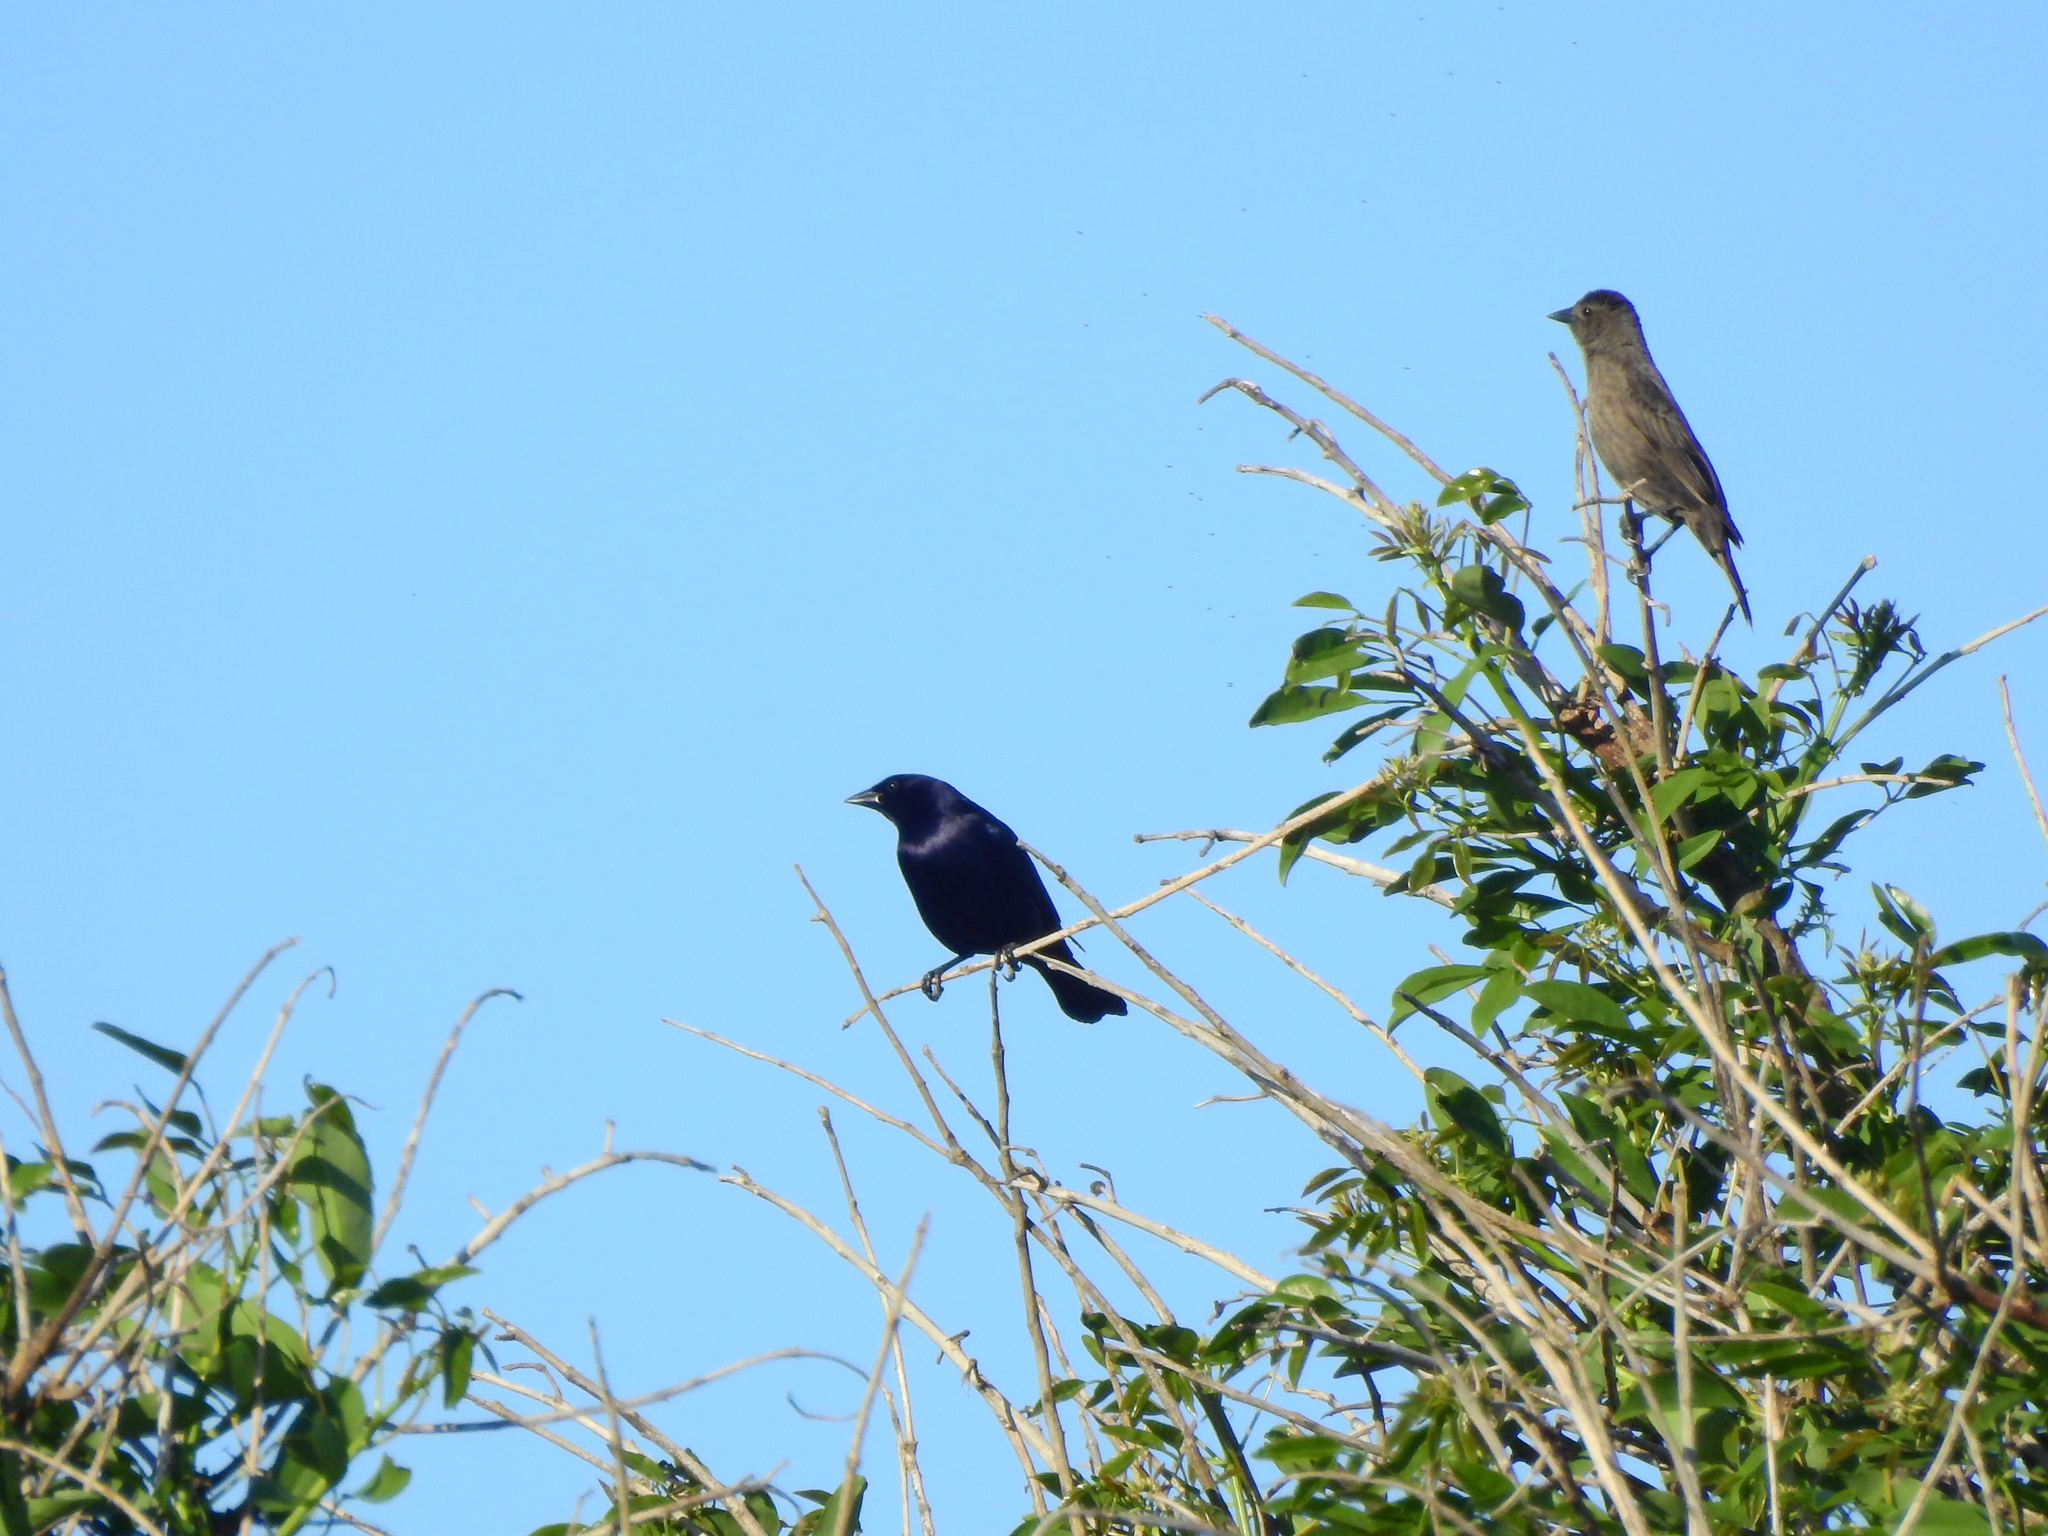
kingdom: Animalia
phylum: Chordata
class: Aves
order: Passeriformes
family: Icteridae
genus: Molothrus
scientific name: Molothrus bonariensis
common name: Shiny cowbird
